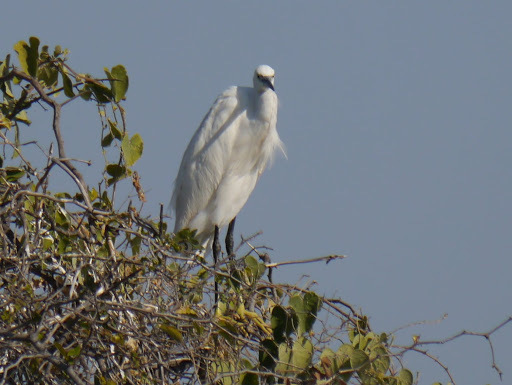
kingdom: Animalia
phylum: Chordata
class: Aves
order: Pelecaniformes
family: Ardeidae
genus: Egretta
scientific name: Egretta garzetta
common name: Little egret
